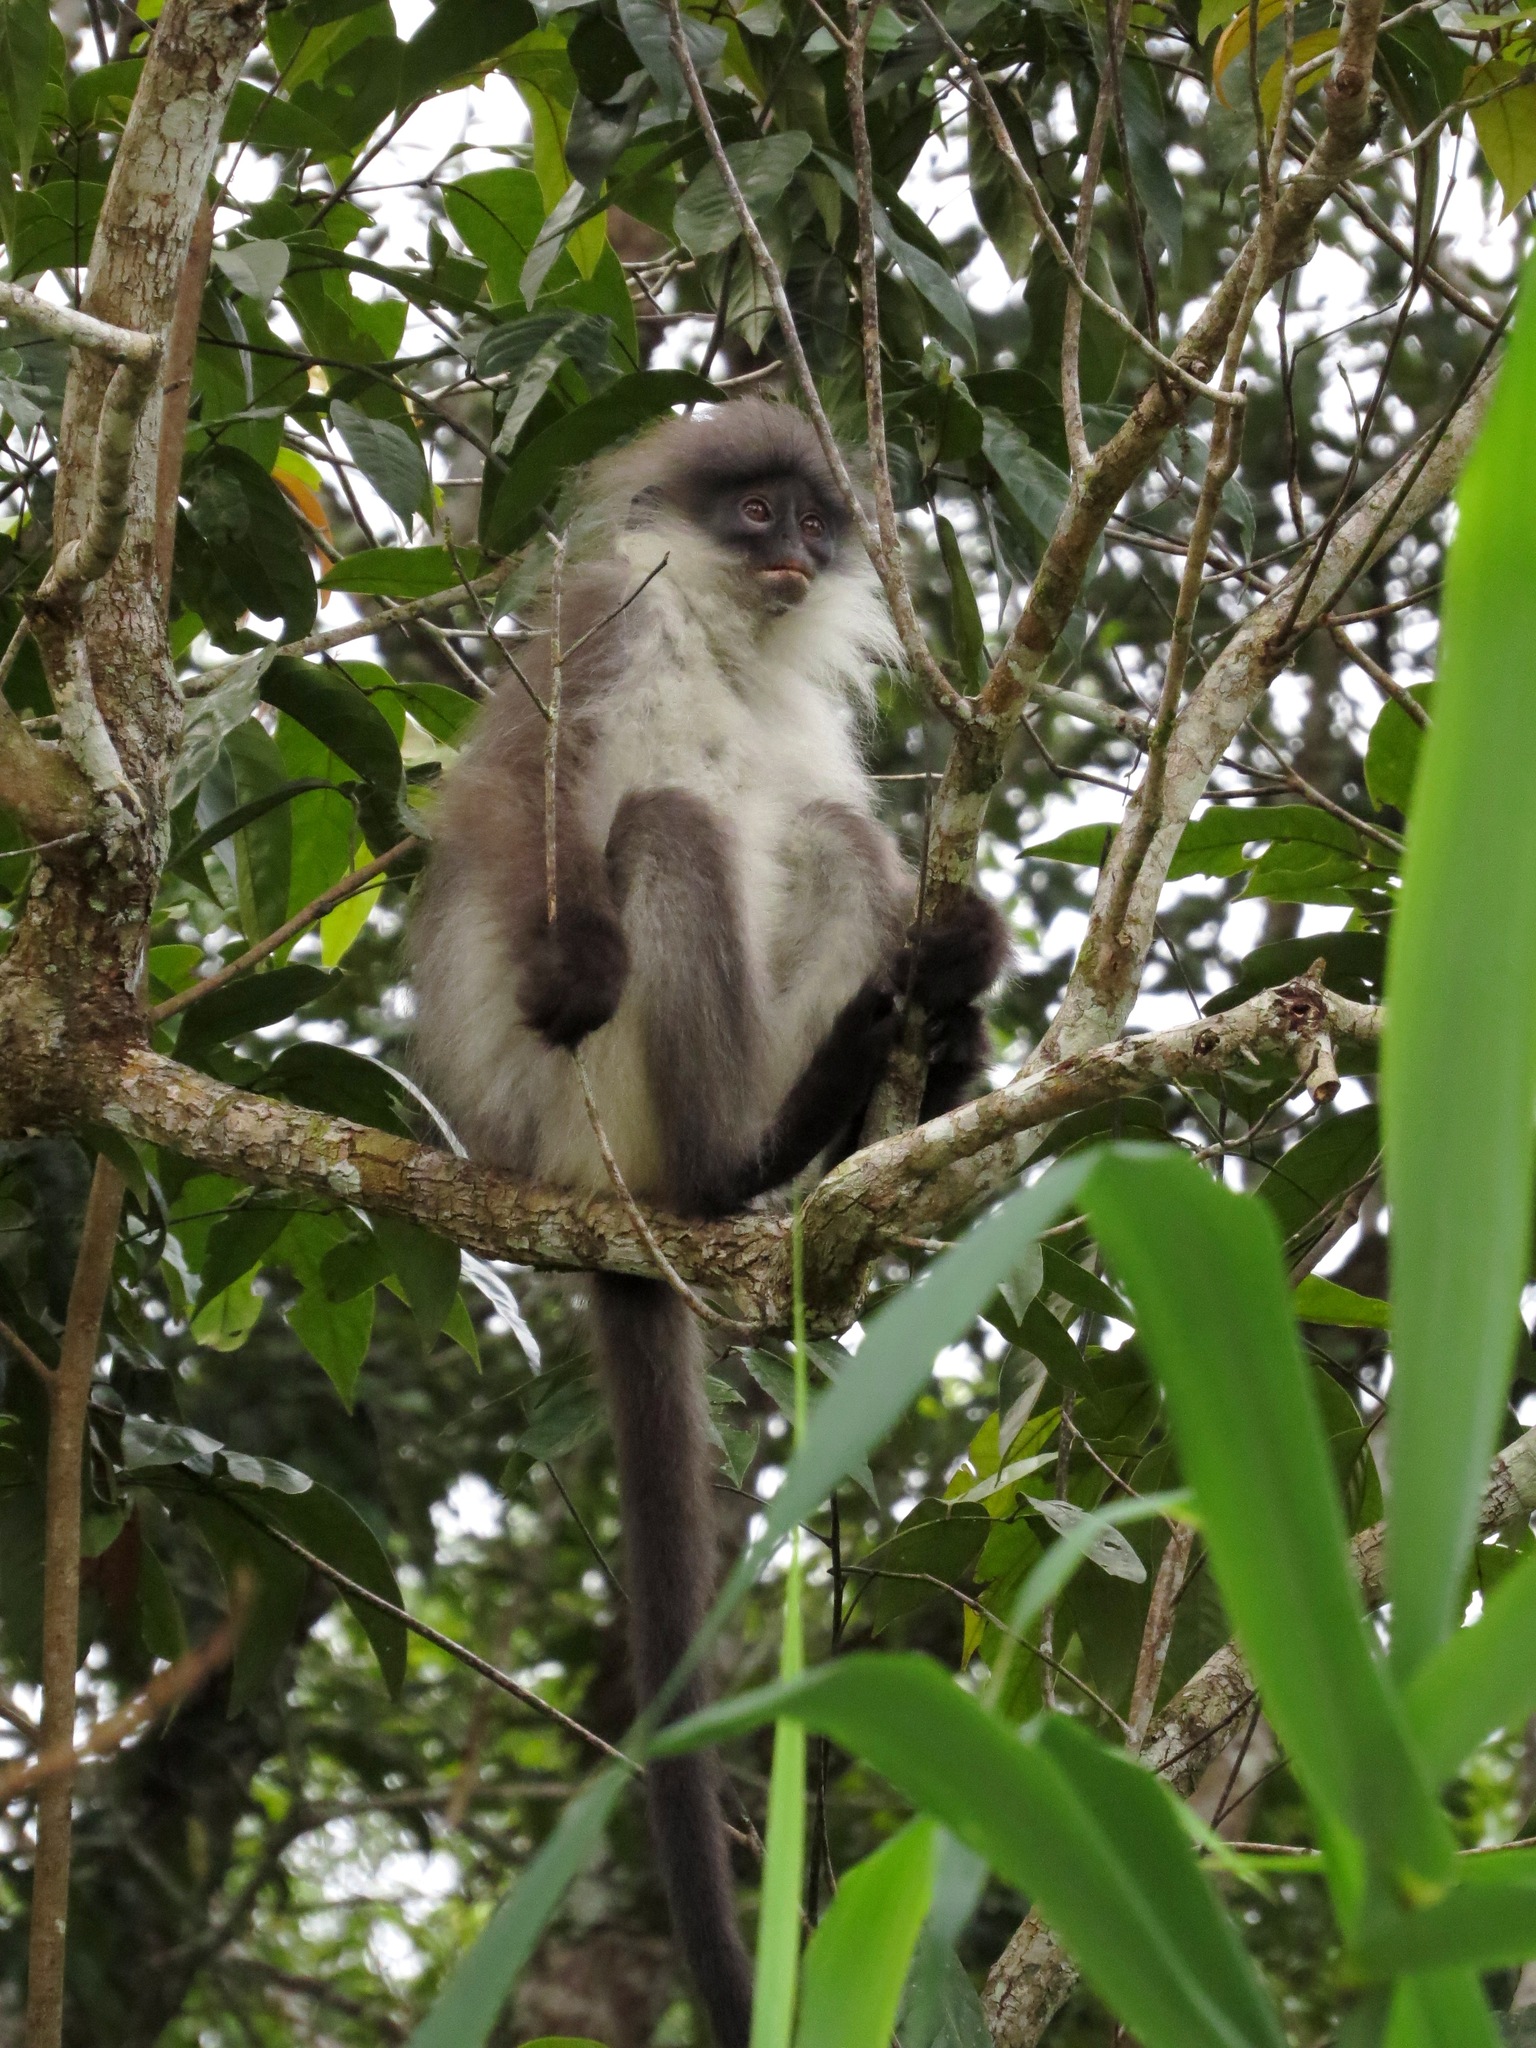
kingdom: Animalia
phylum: Chordata
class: Mammalia
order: Primates
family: Cercopithecidae
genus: Presbytis
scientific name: Presbytis siamensis
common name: White-thighed surili
